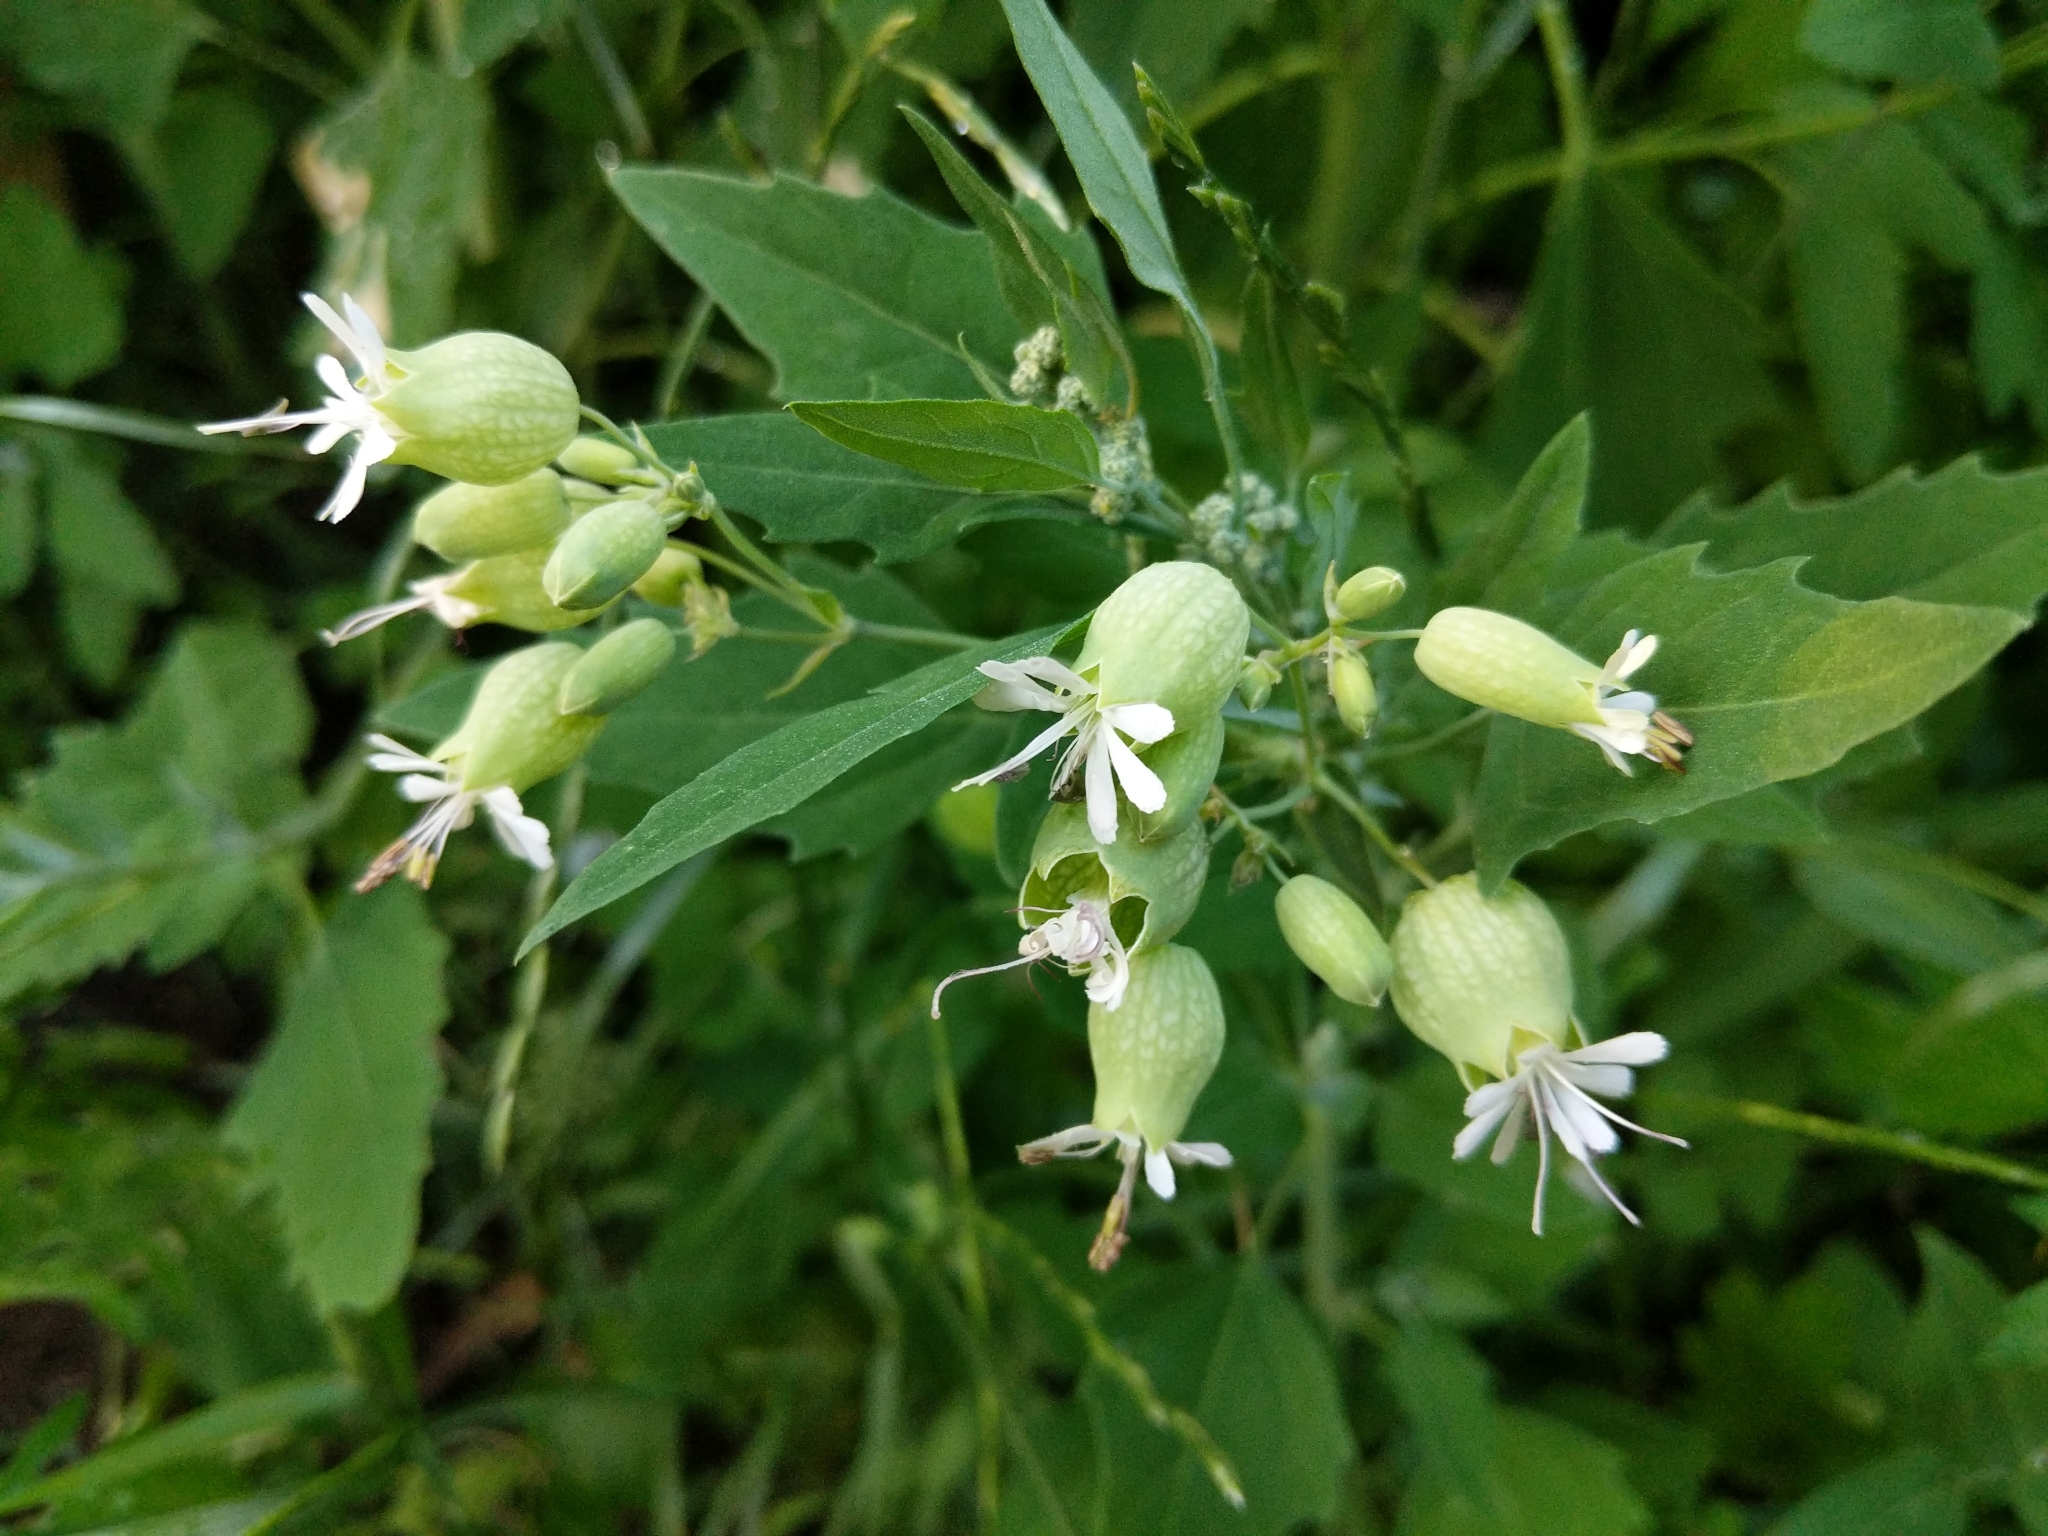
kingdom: Plantae
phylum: Tracheophyta
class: Magnoliopsida
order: Caryophyllales
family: Caryophyllaceae
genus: Silene
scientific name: Silene vulgaris
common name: Bladder campion
